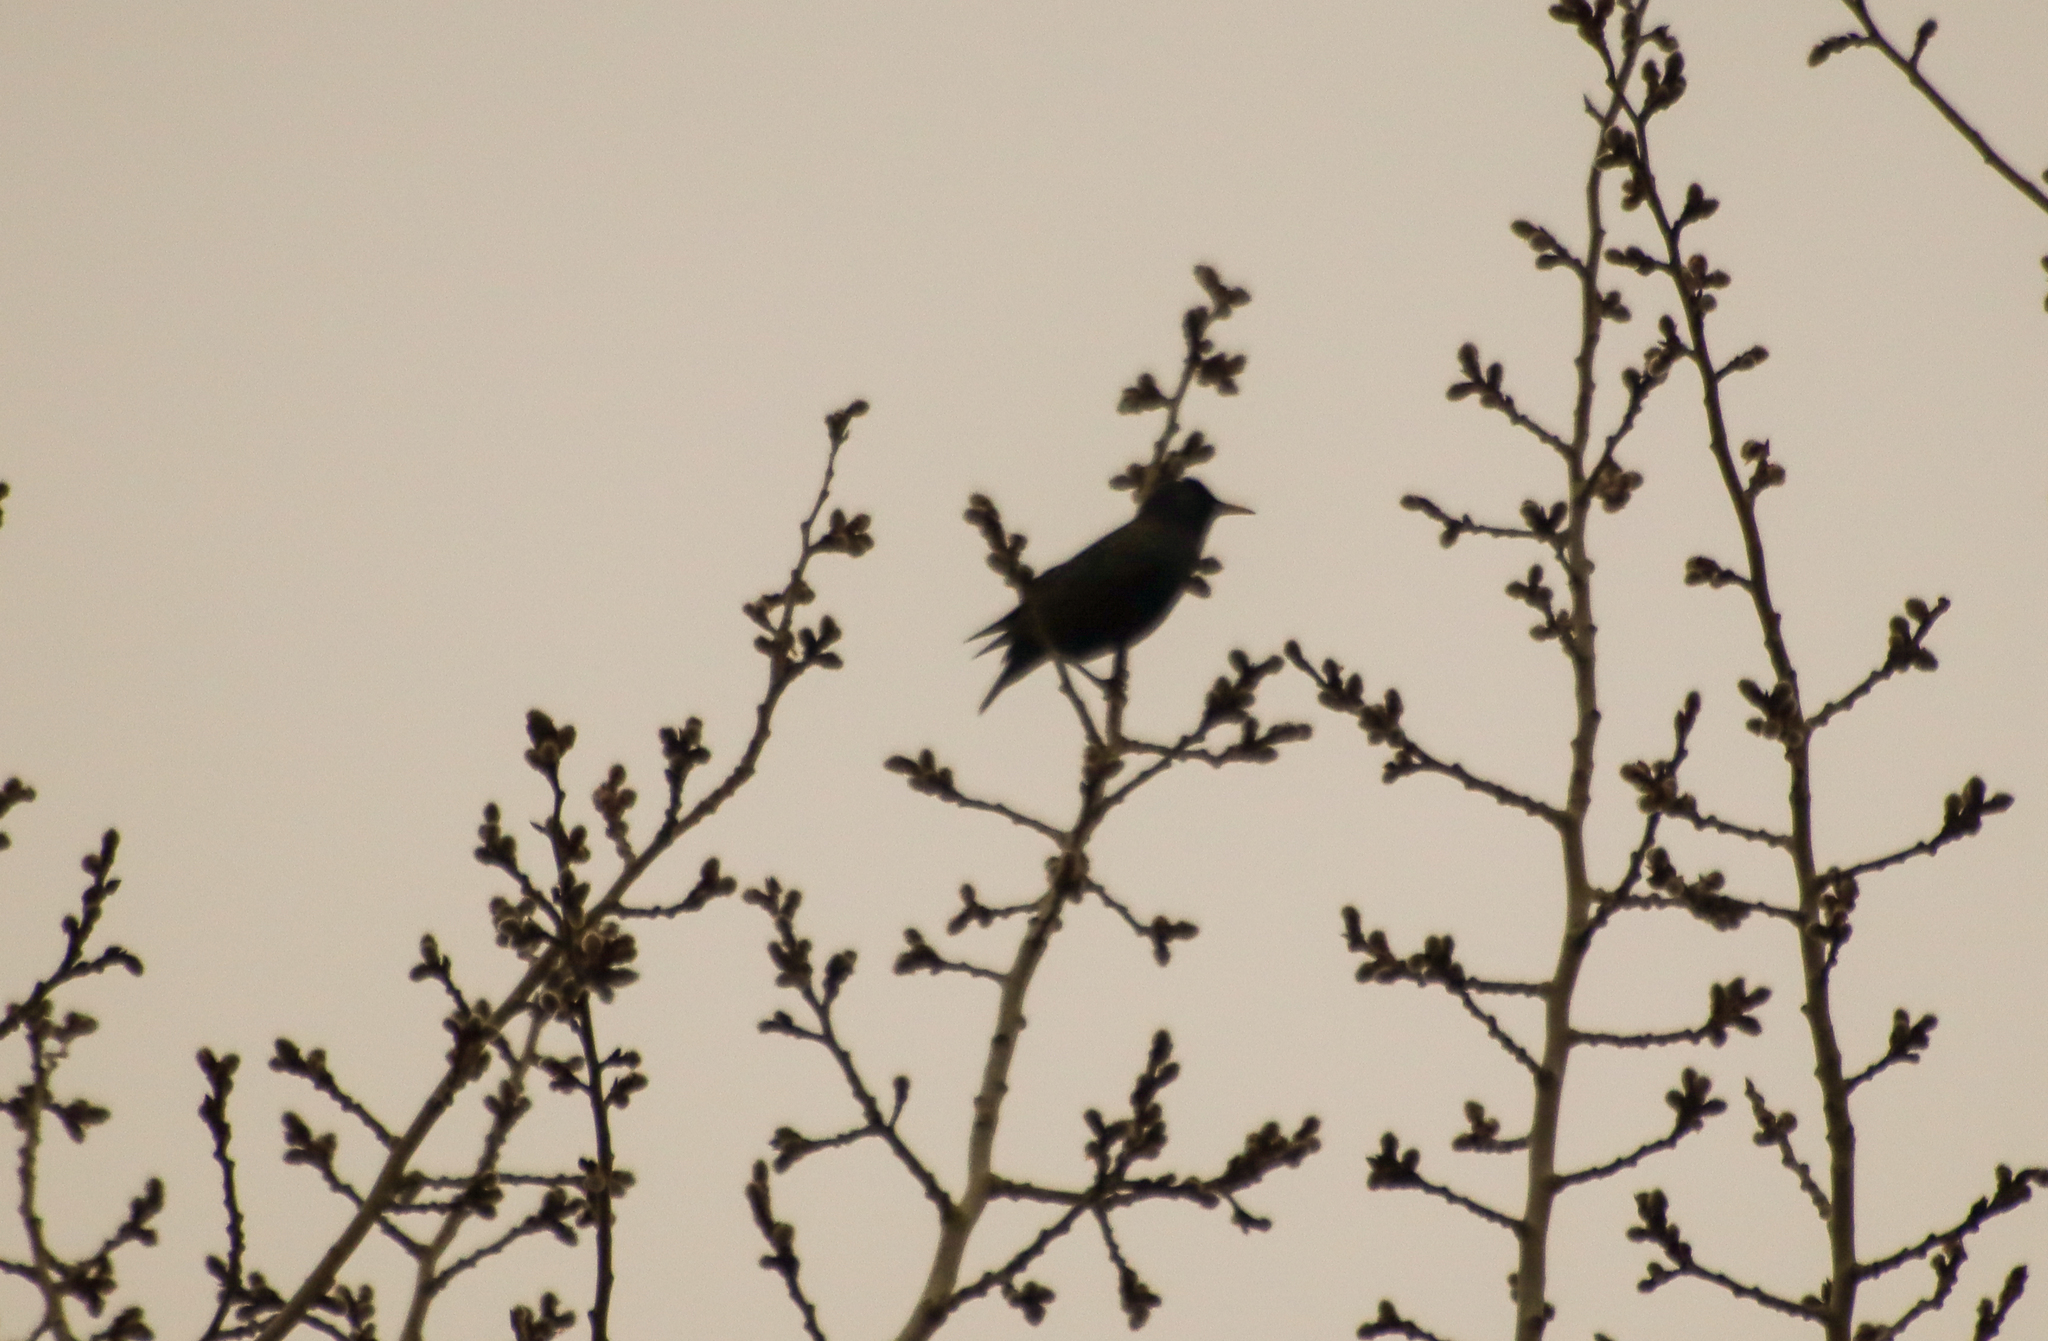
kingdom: Animalia
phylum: Chordata
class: Aves
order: Passeriformes
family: Sturnidae
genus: Sturnus
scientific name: Sturnus vulgaris
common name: Common starling
